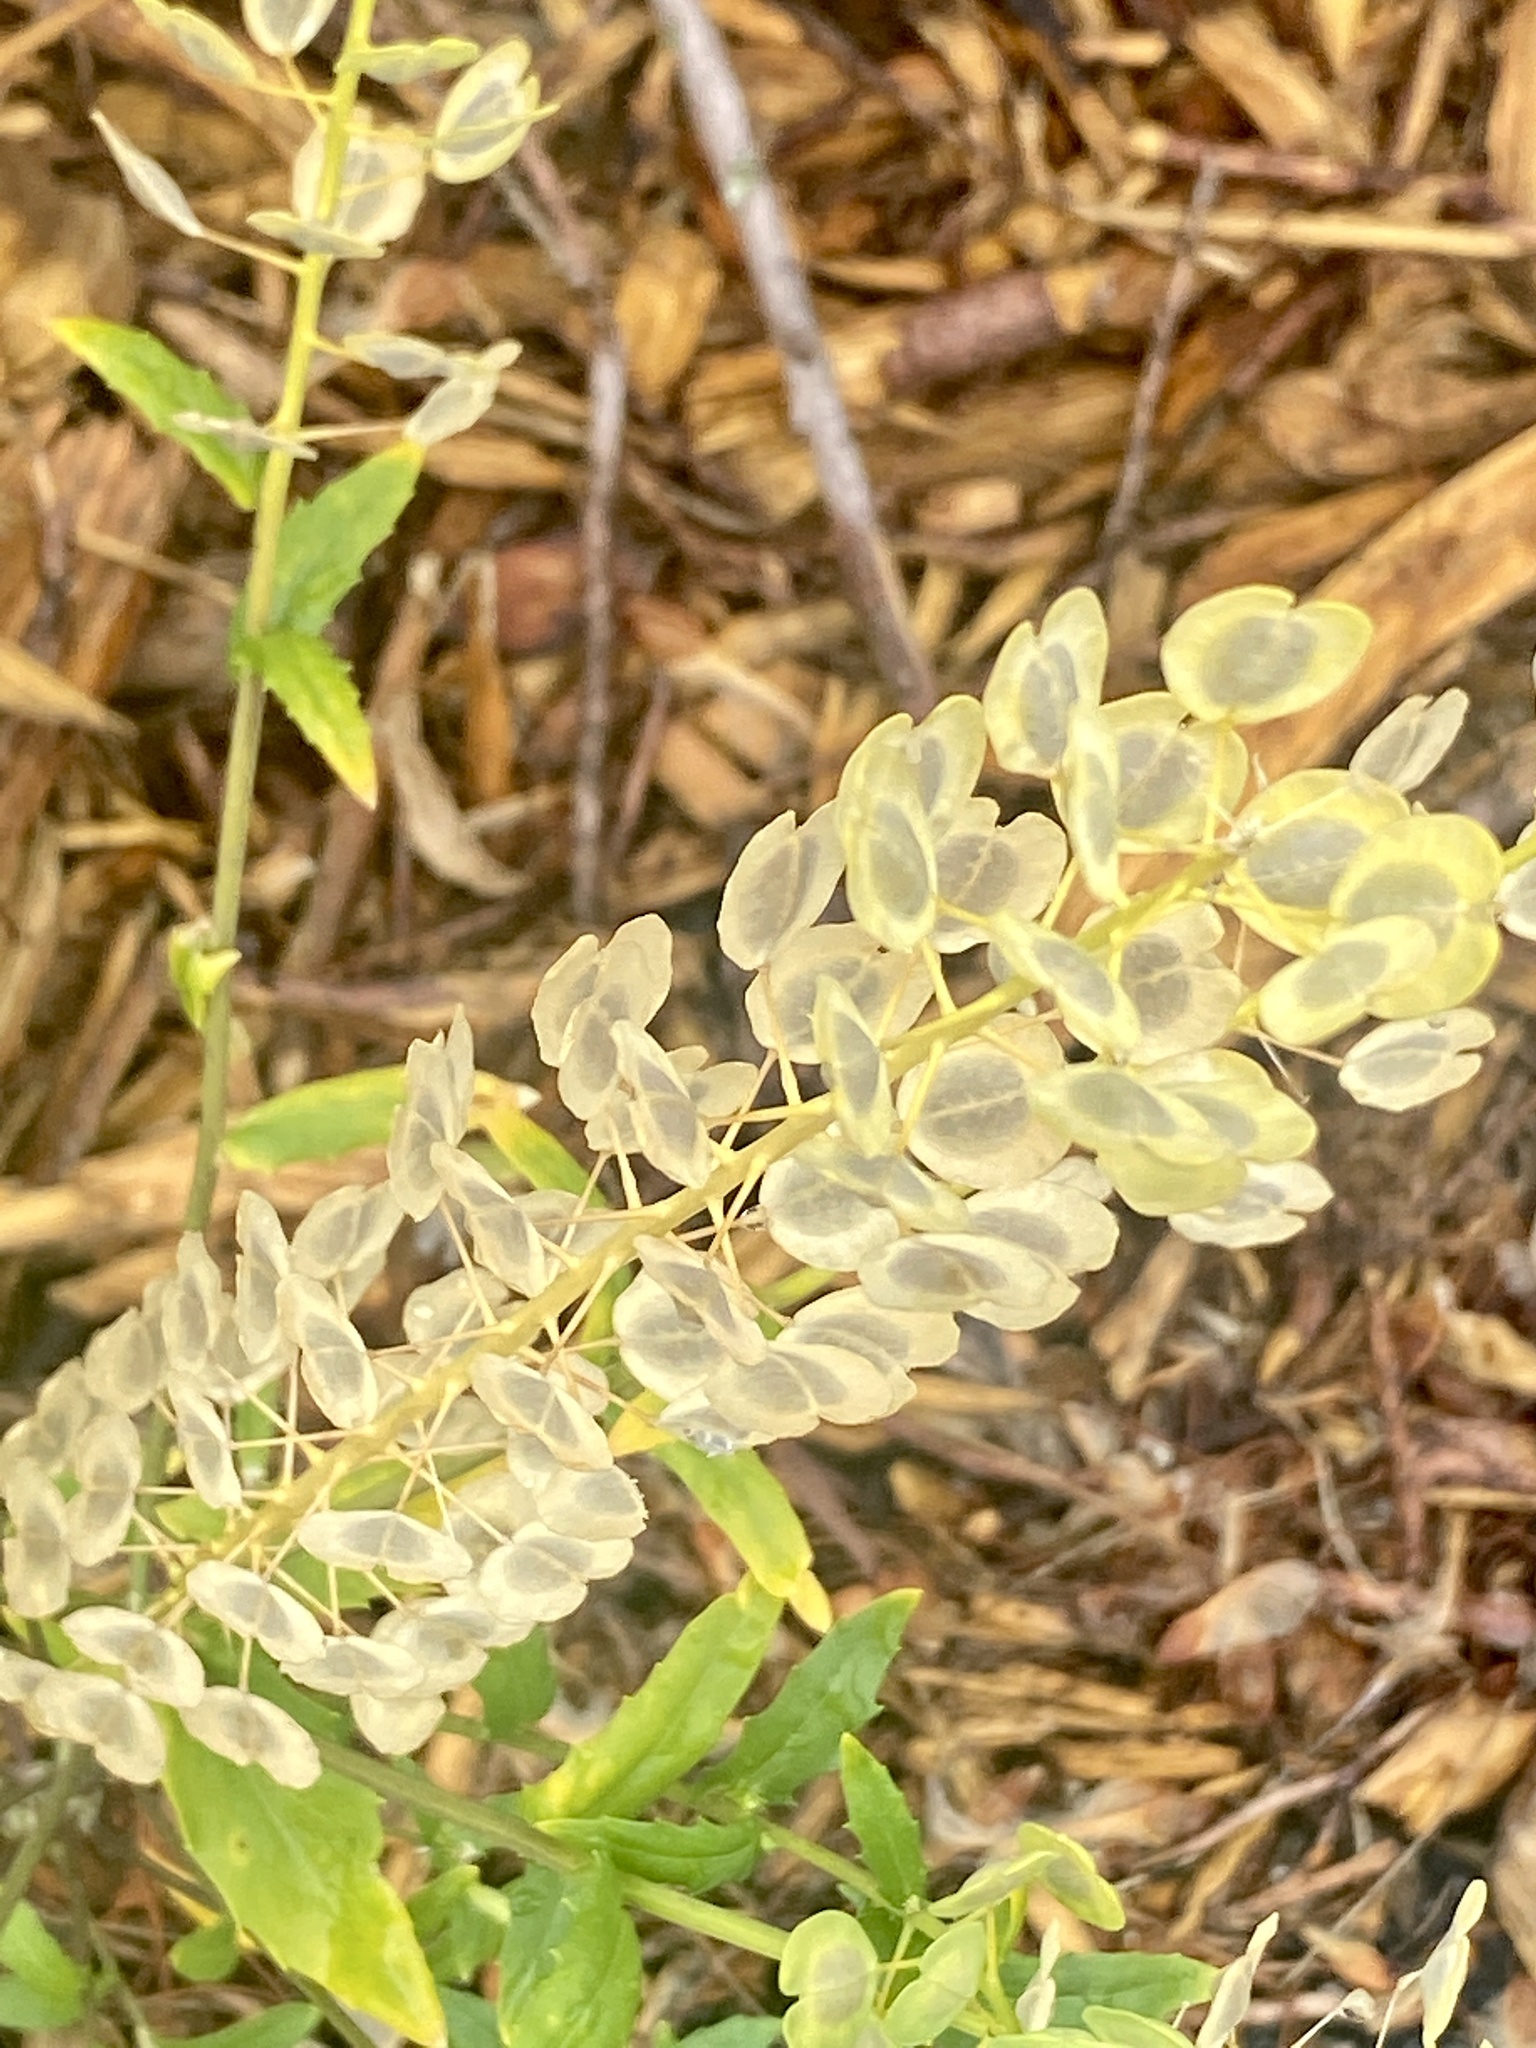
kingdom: Plantae
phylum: Tracheophyta
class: Magnoliopsida
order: Brassicales
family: Brassicaceae
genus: Thlaspi
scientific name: Thlaspi arvense
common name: Field pennycress
